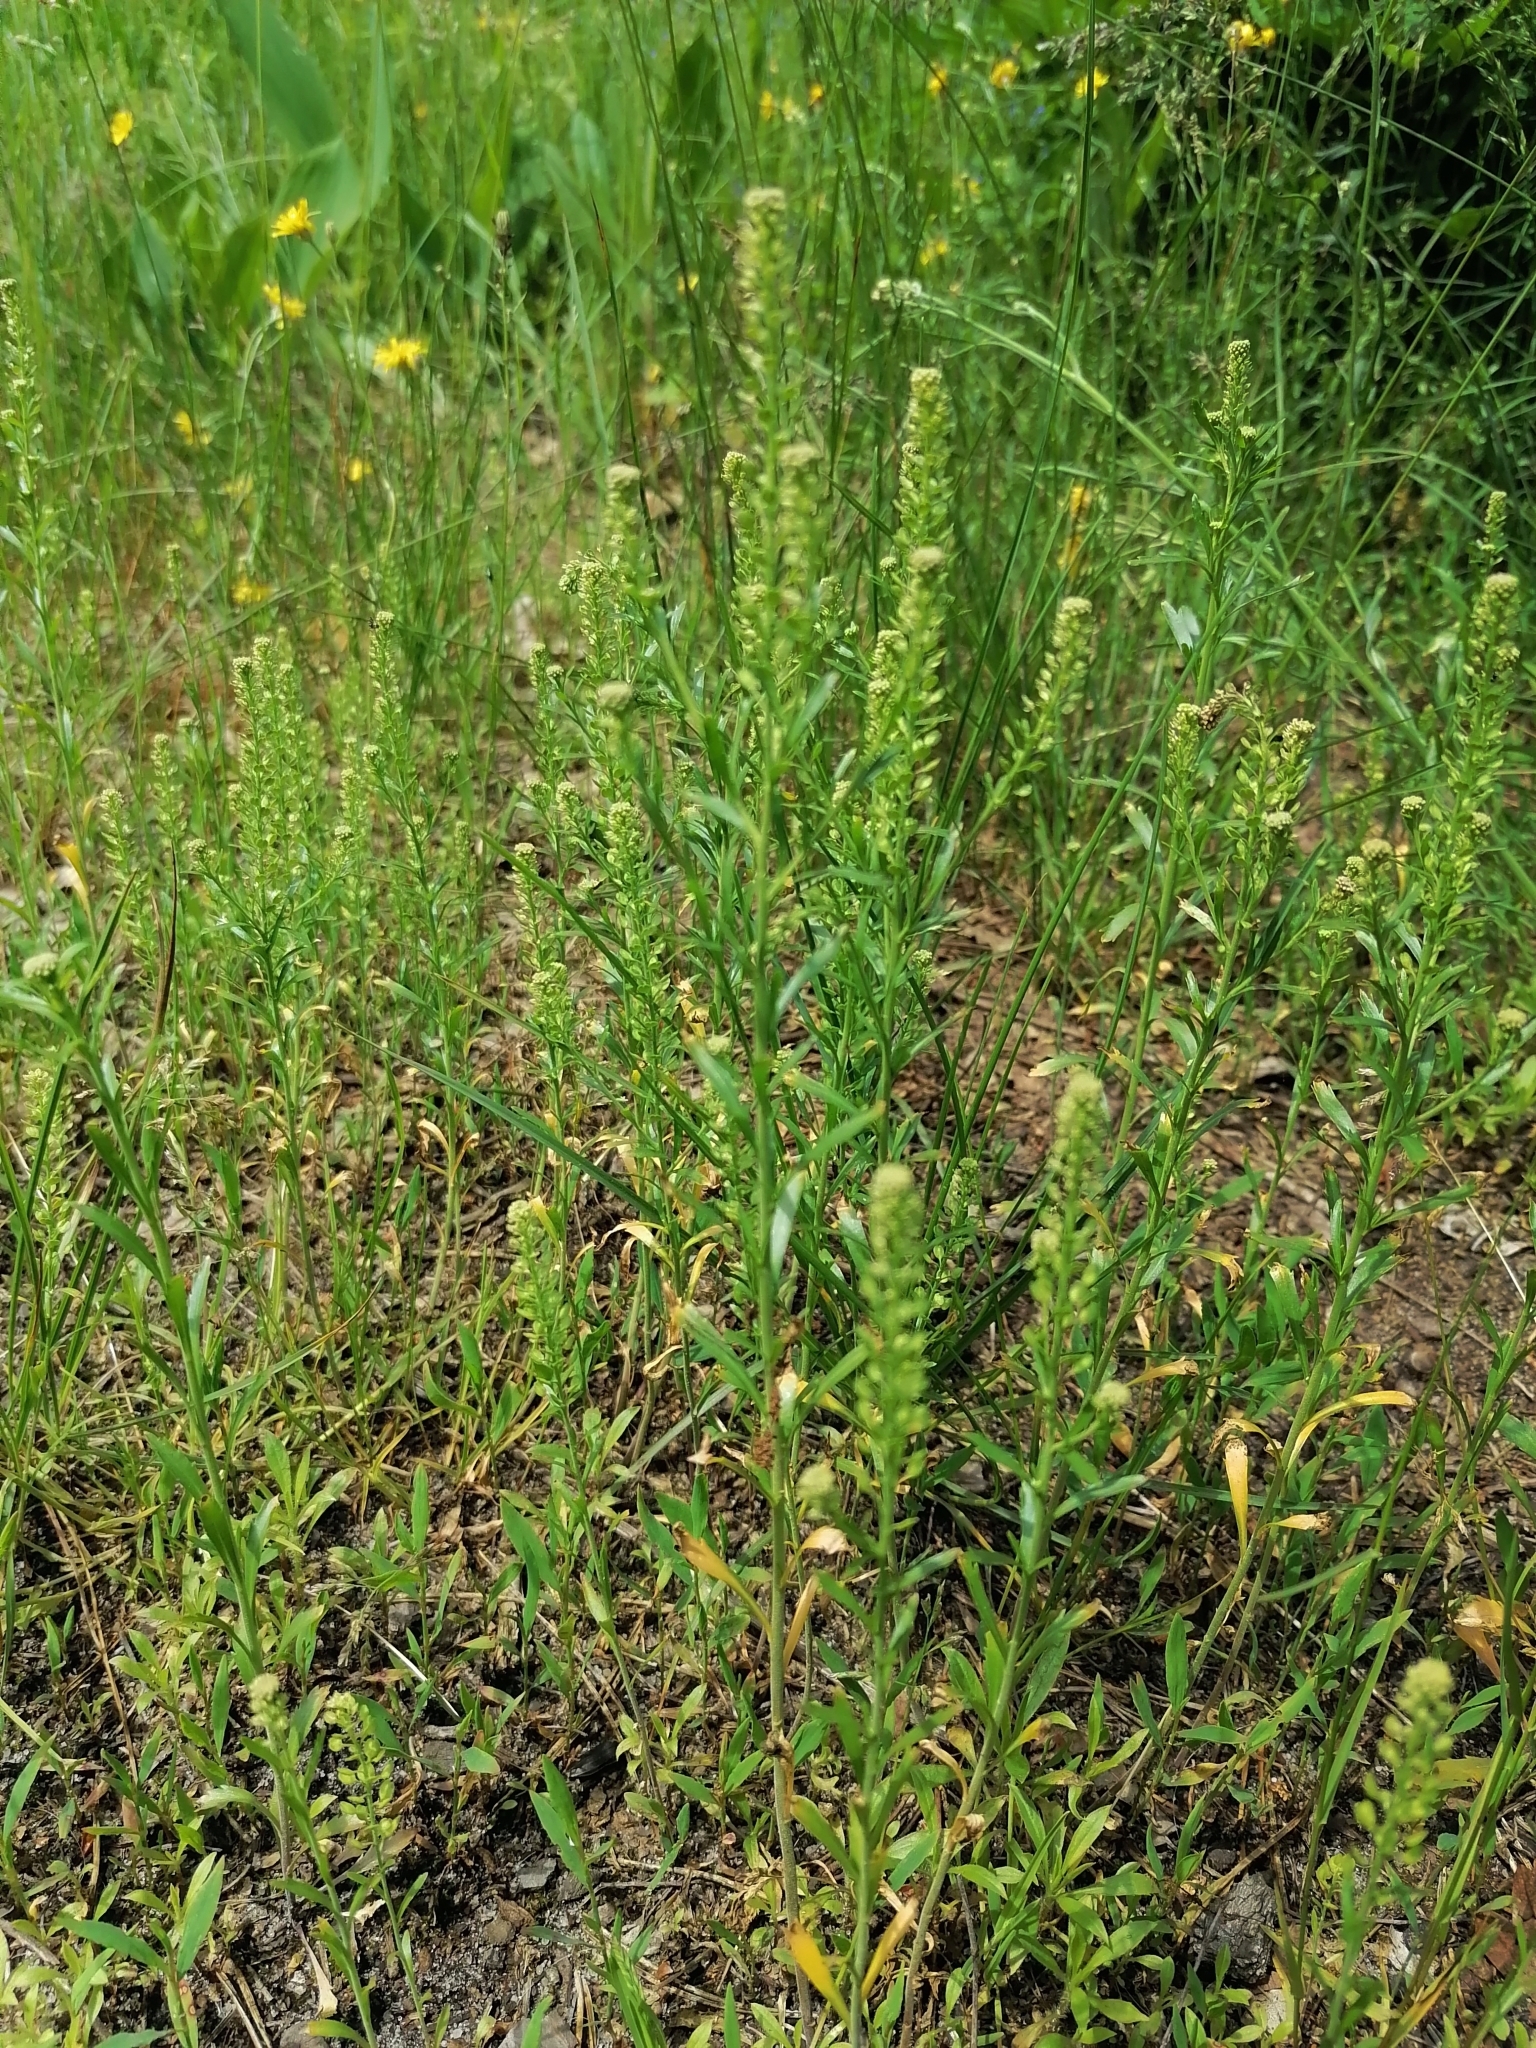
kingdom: Plantae
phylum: Tracheophyta
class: Magnoliopsida
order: Brassicales
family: Brassicaceae
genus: Lepidium
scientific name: Lepidium densiflorum
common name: Miner's pepperwort
